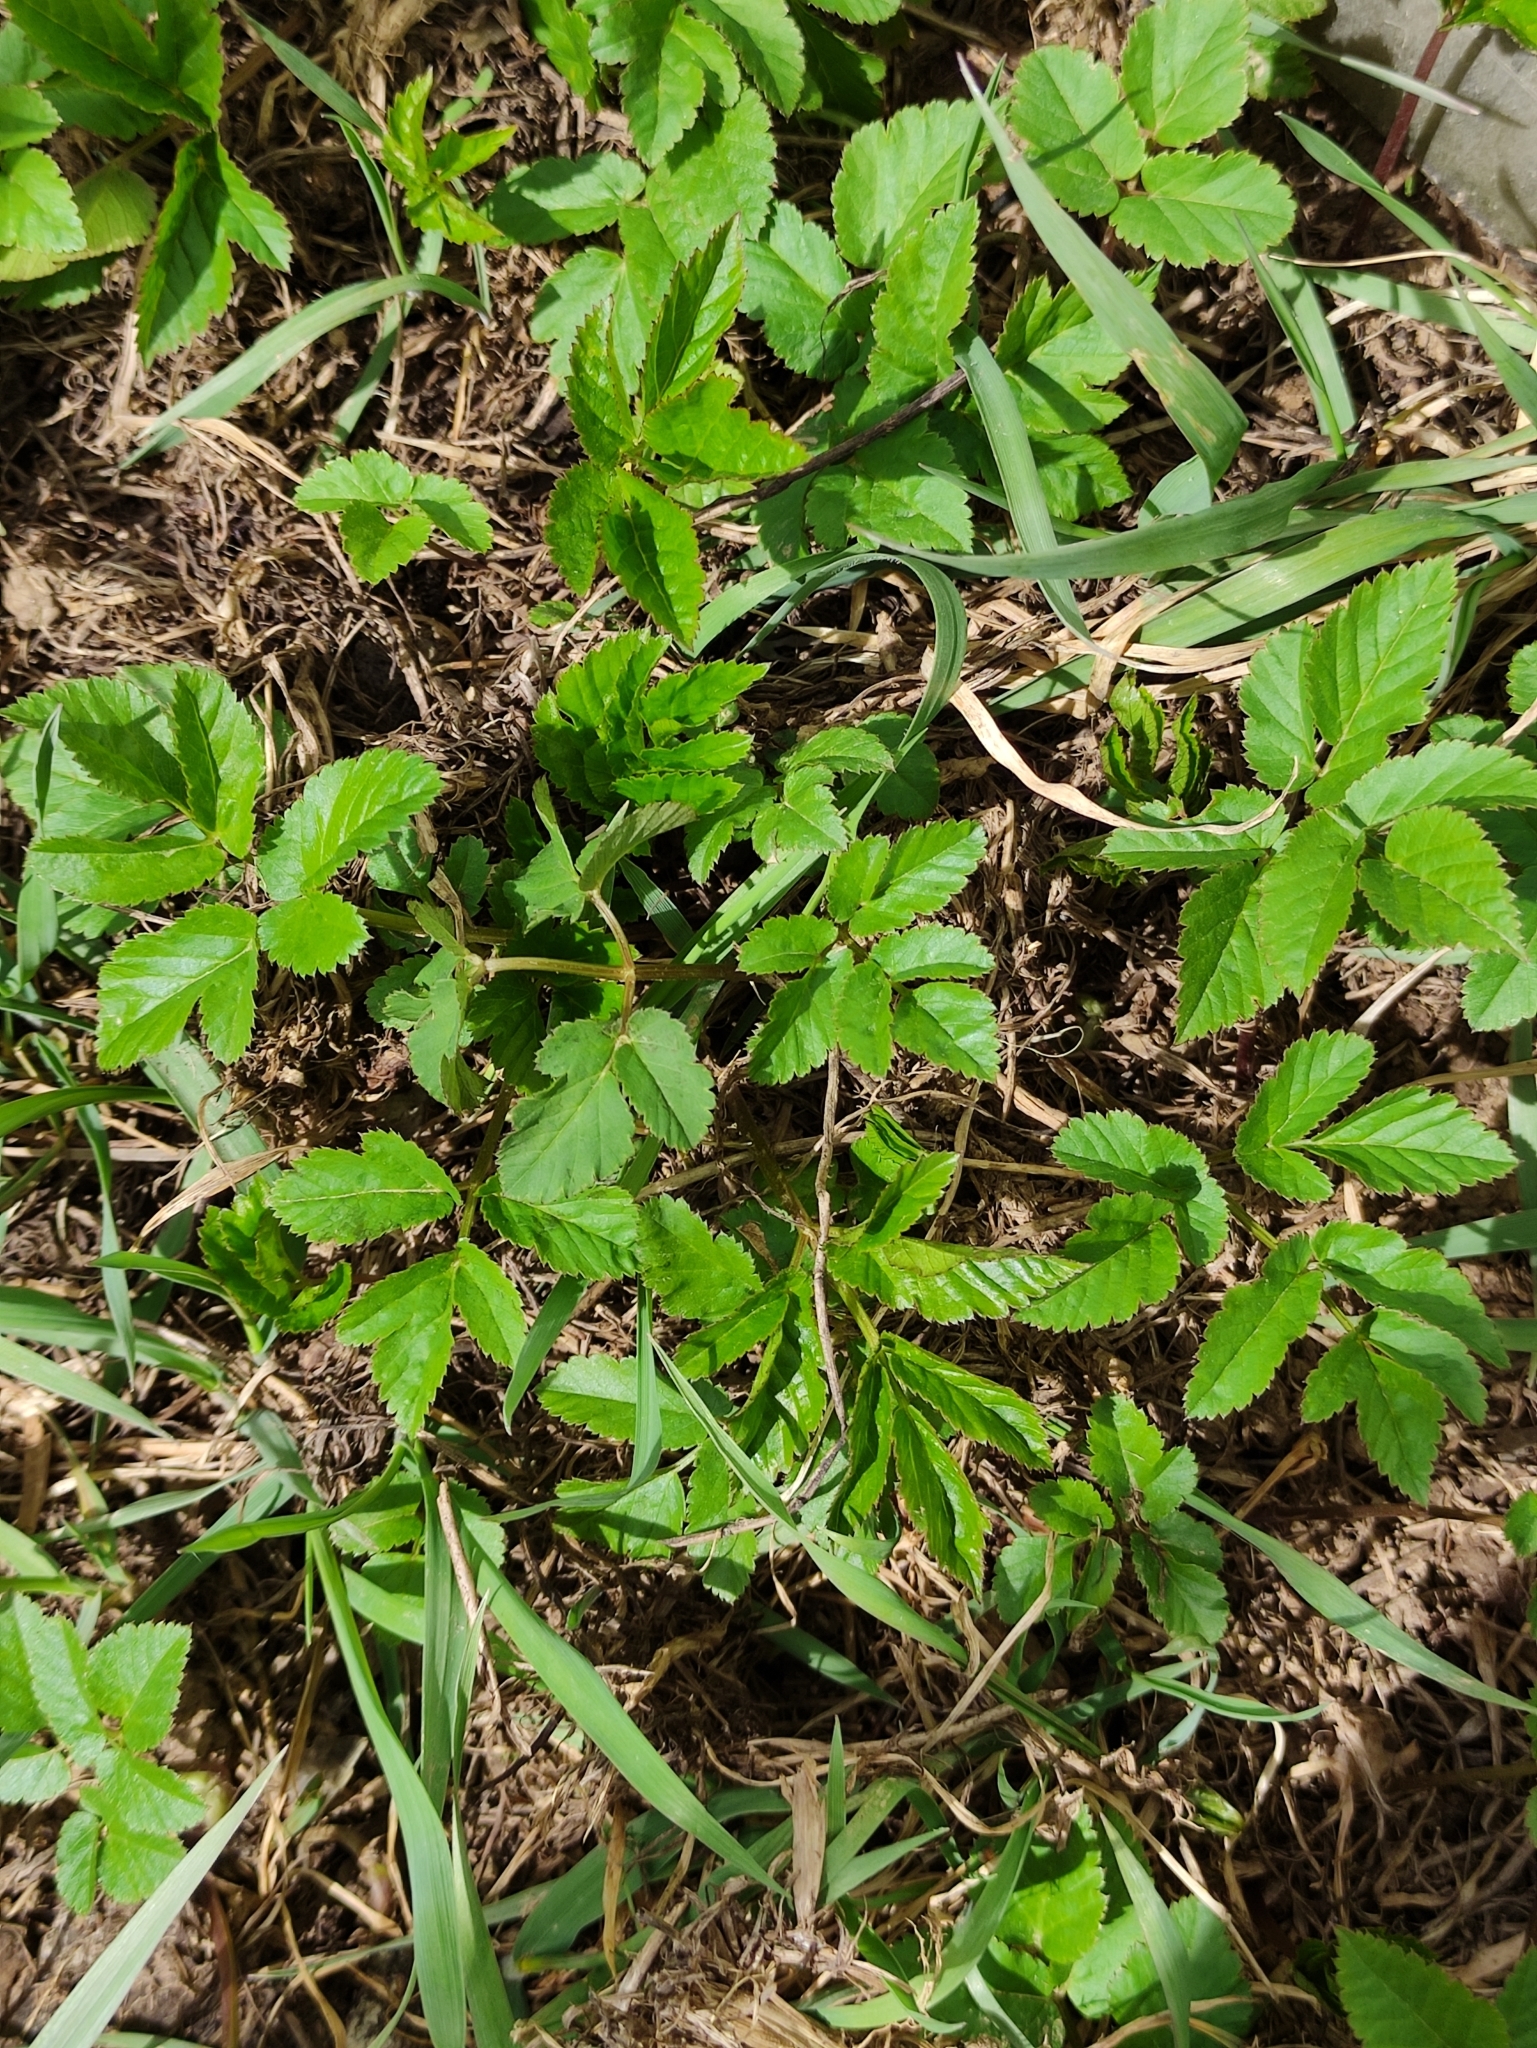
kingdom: Plantae
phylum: Tracheophyta
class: Magnoliopsida
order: Apiales
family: Apiaceae
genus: Aegopodium
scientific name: Aegopodium podagraria
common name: Ground-elder
